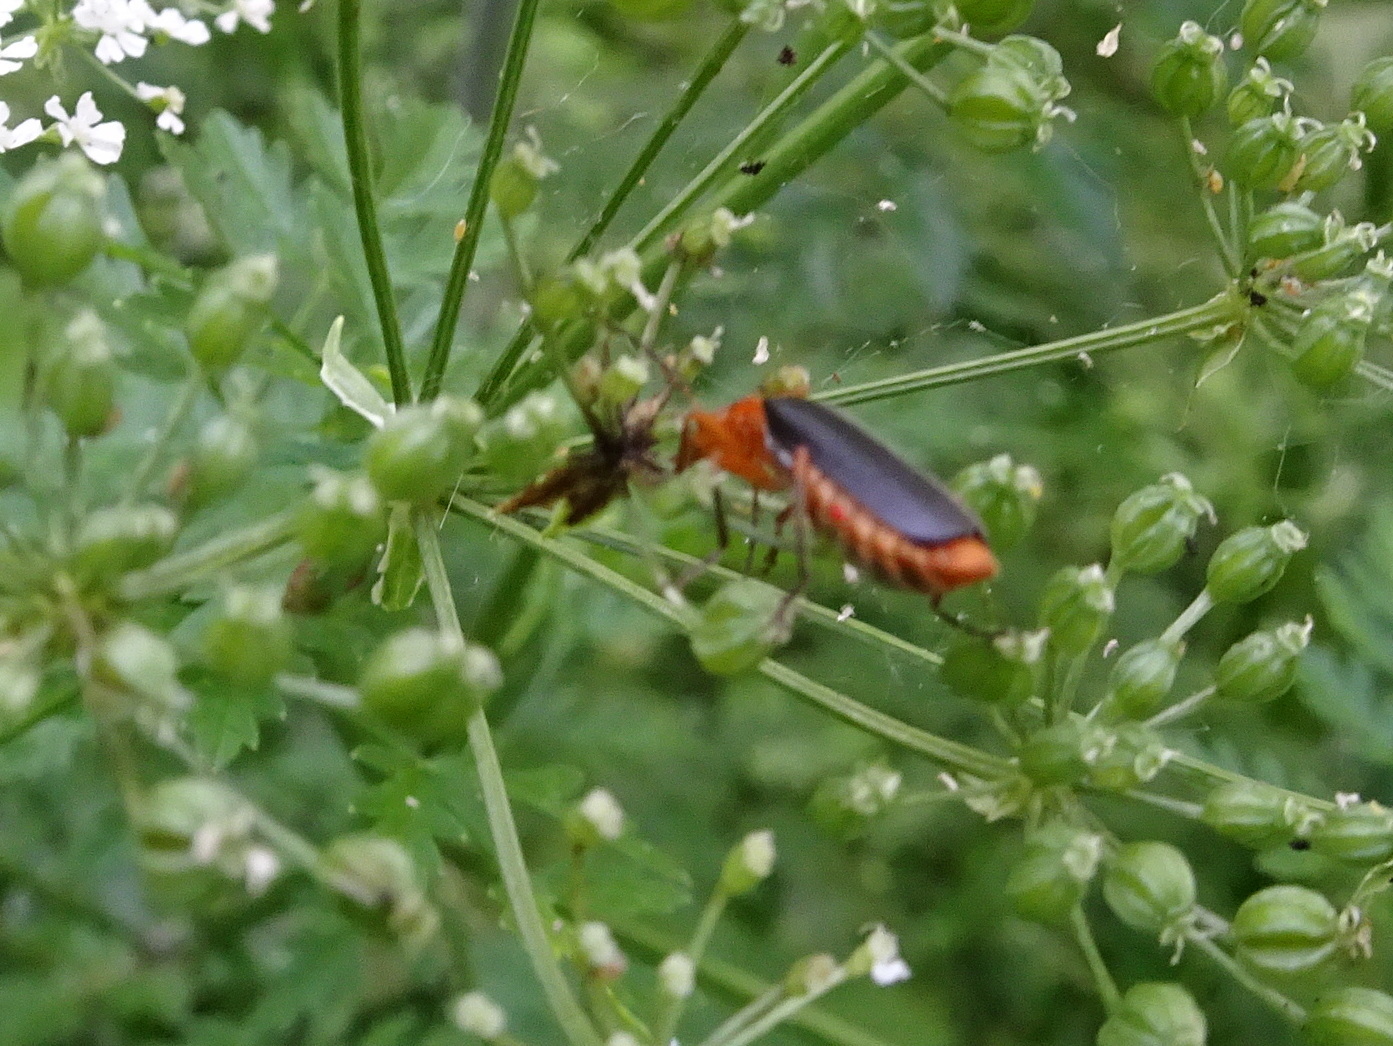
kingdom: Animalia
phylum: Arthropoda
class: Insecta
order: Coleoptera
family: Cantharidae
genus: Podabrus
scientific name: Podabrus tomentosus
